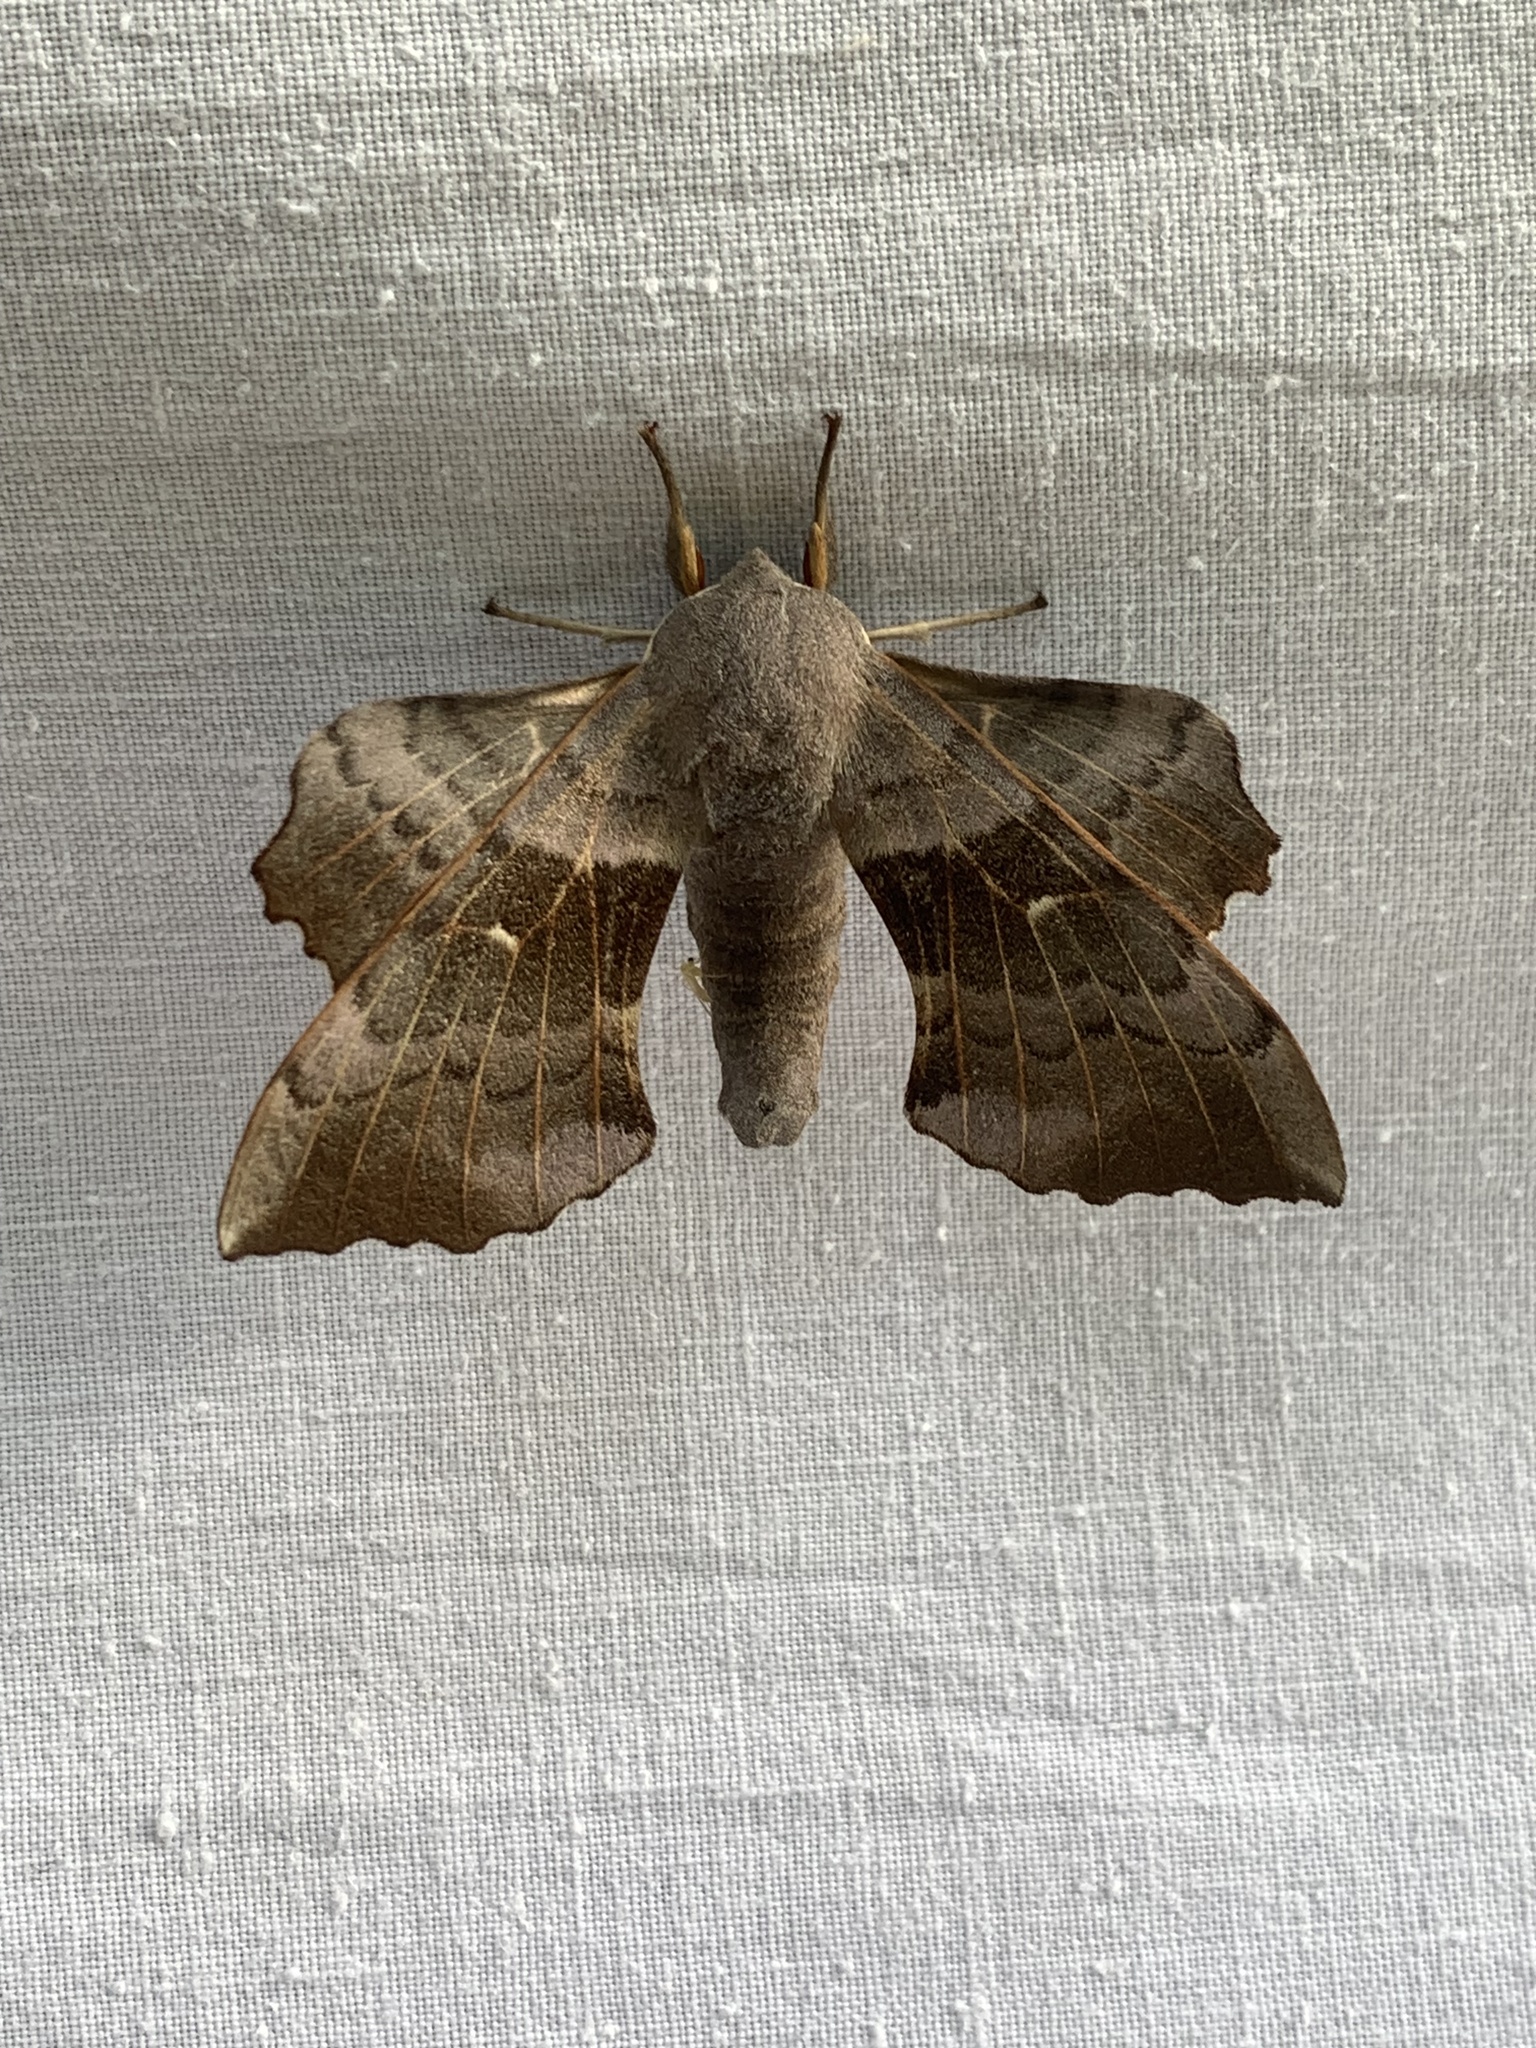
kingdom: Animalia
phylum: Arthropoda
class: Insecta
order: Lepidoptera
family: Sphingidae
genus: Laothoe
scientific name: Laothoe populi
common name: Poplar hawk-moth
